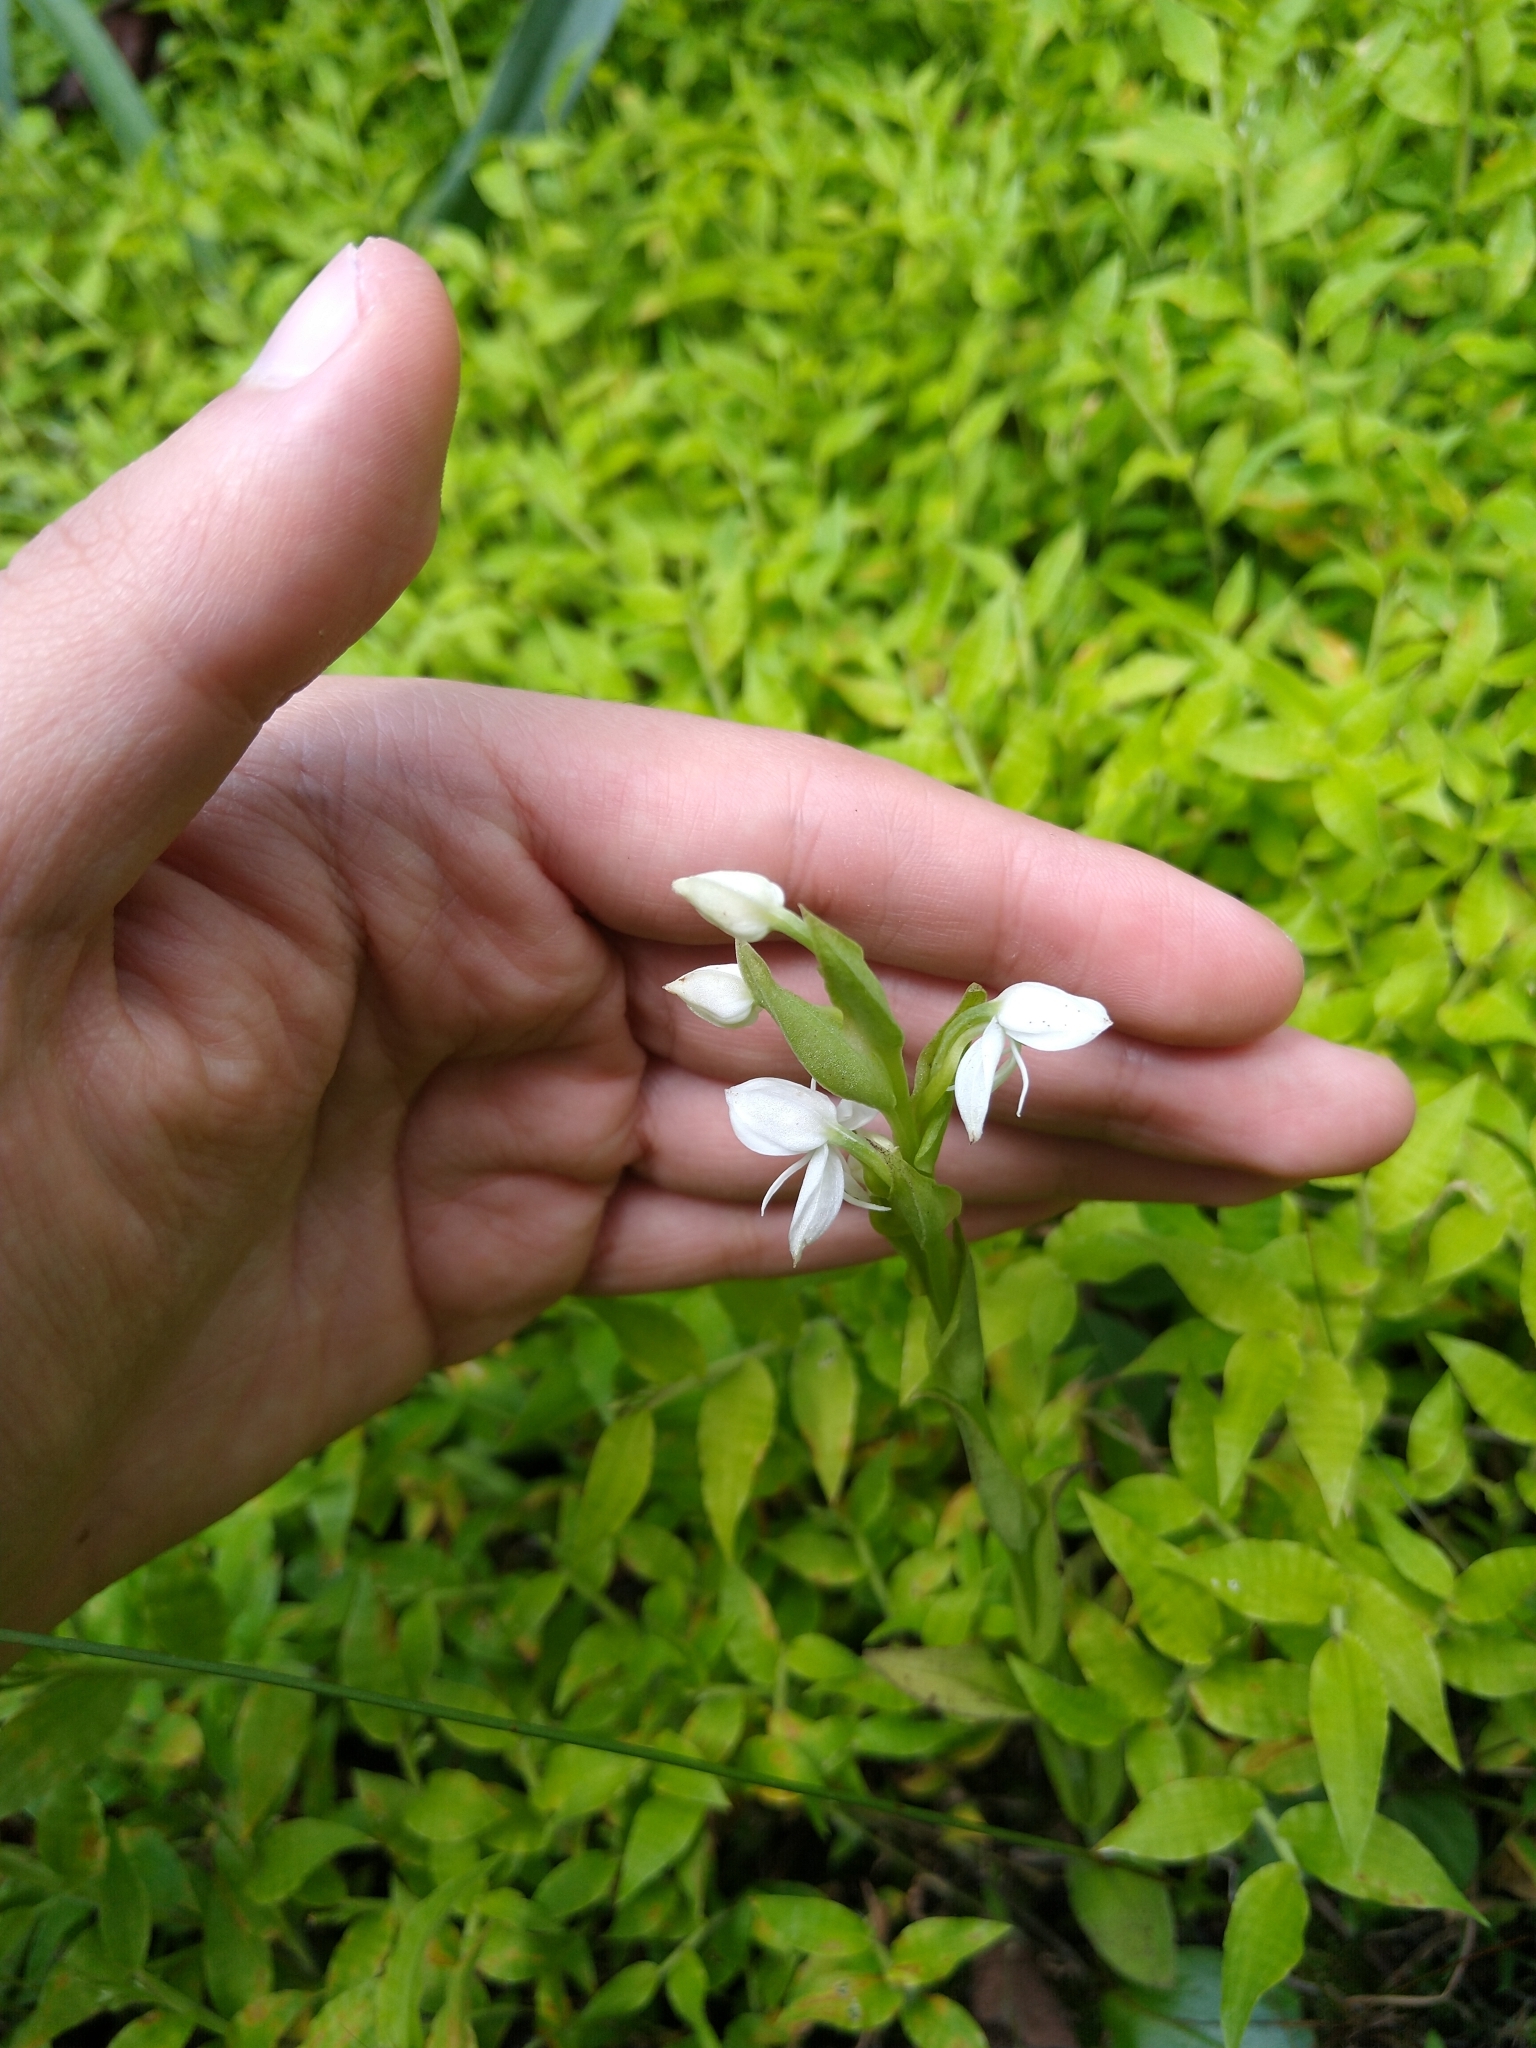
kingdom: Plantae
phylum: Tracheophyta
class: Liliopsida
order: Asparagales
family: Orchidaceae
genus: Habenaria
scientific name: Habenaria entomantha
